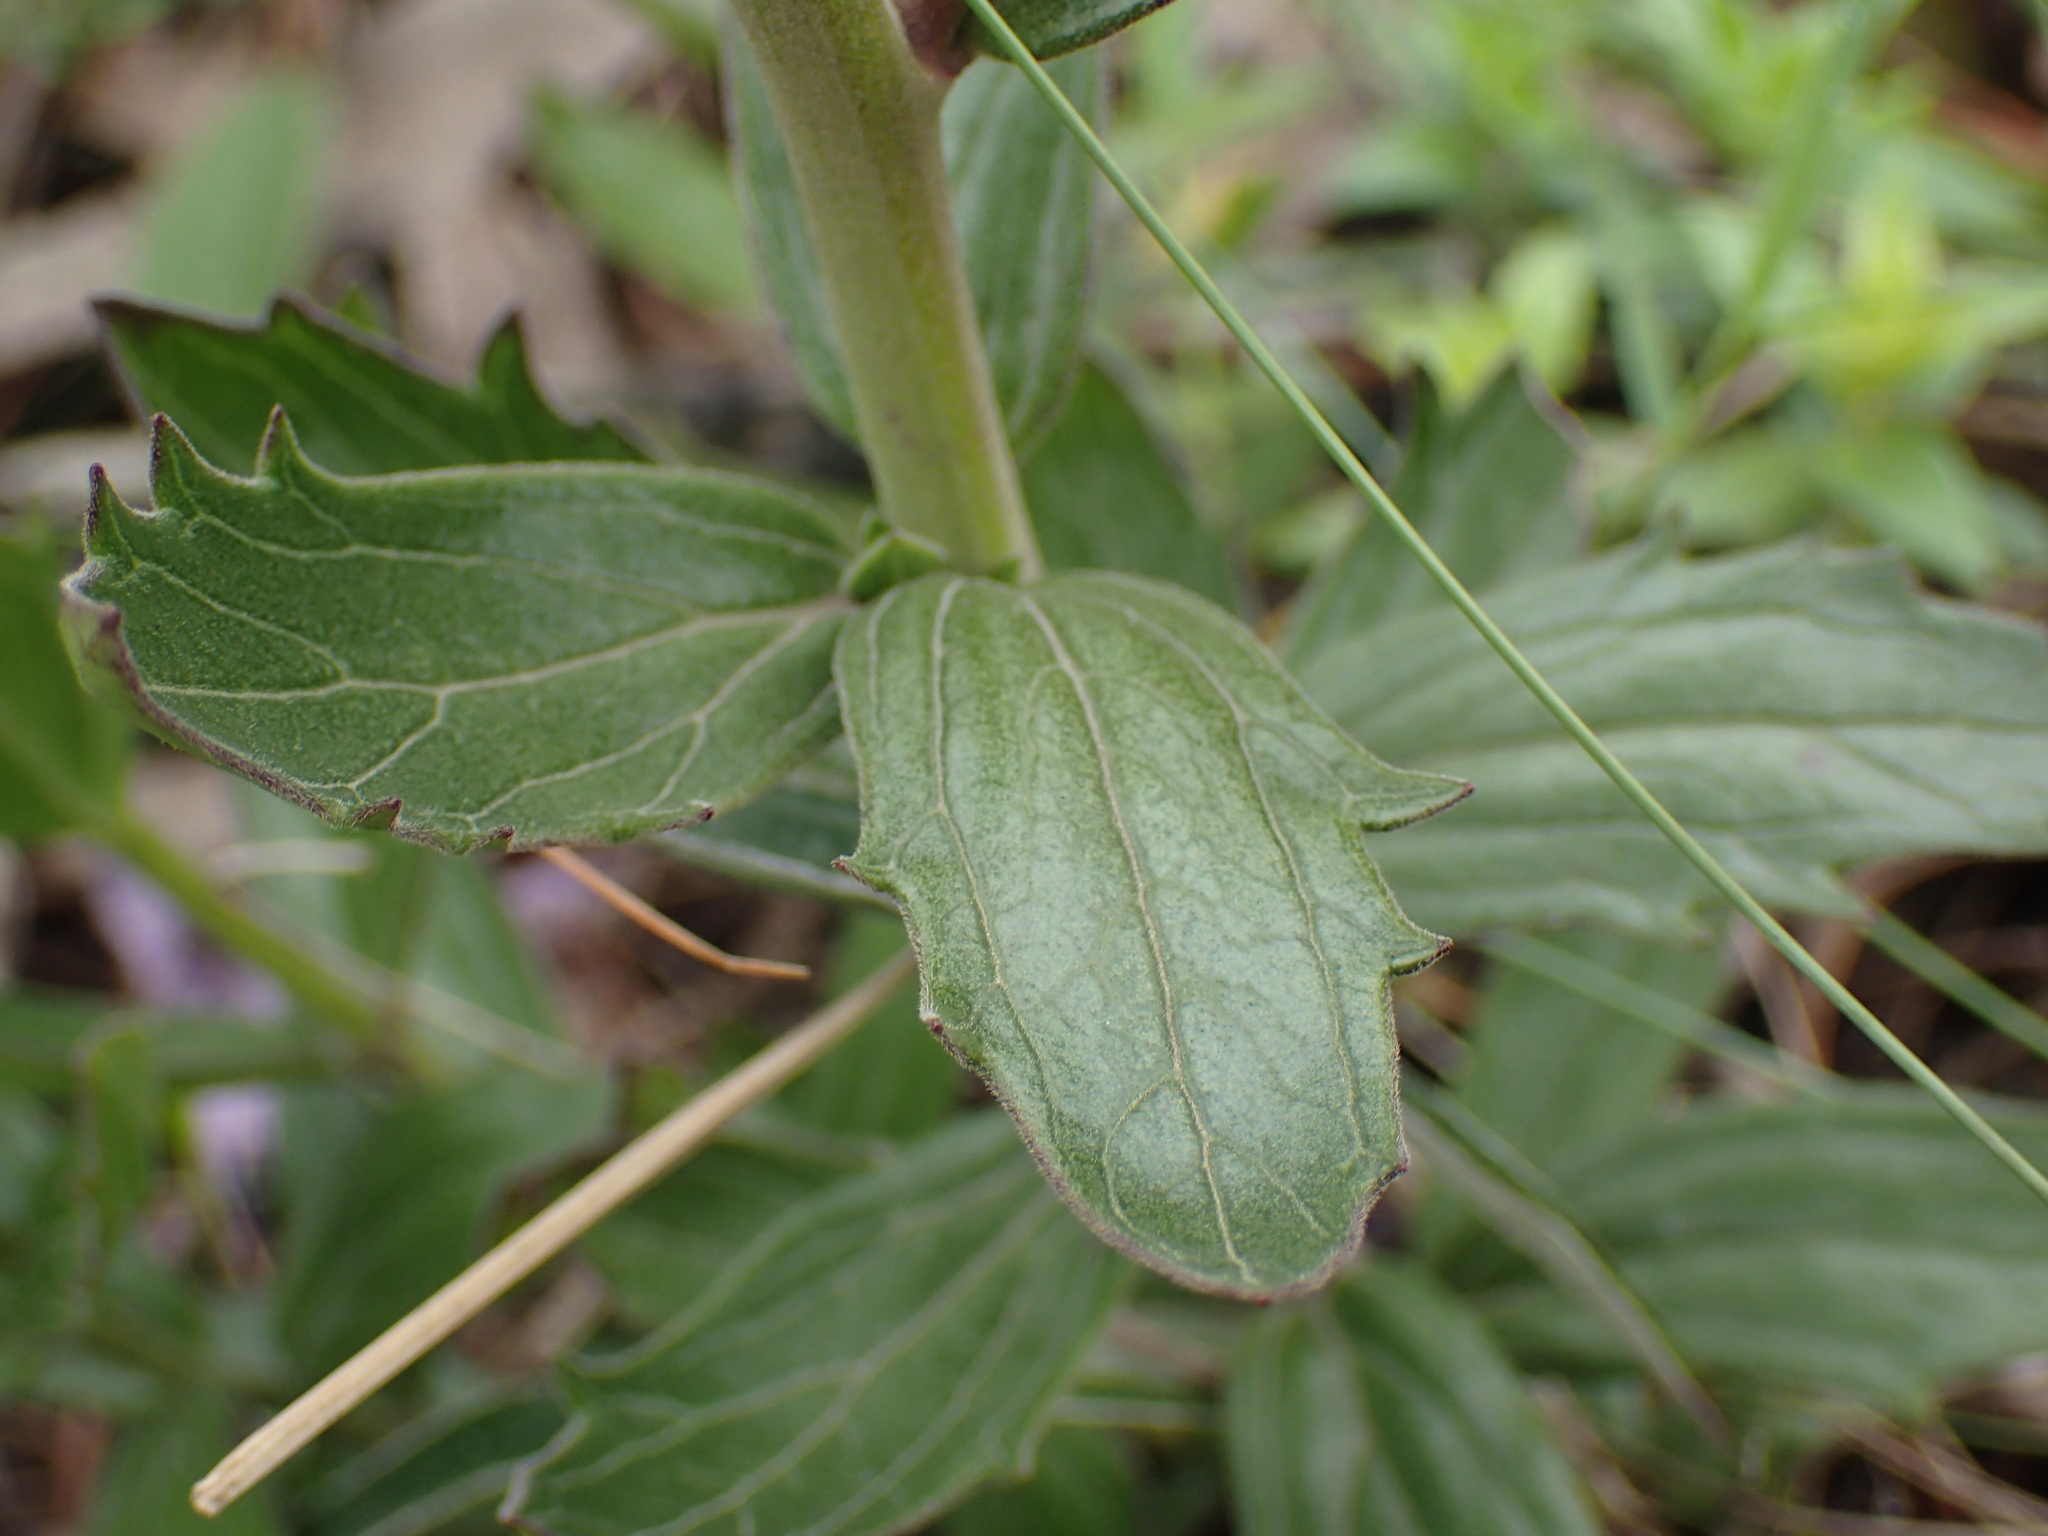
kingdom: Plantae
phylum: Tracheophyta
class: Magnoliopsida
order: Lamiales
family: Orobanchaceae
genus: Cycnium
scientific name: Cycnium racemosum
